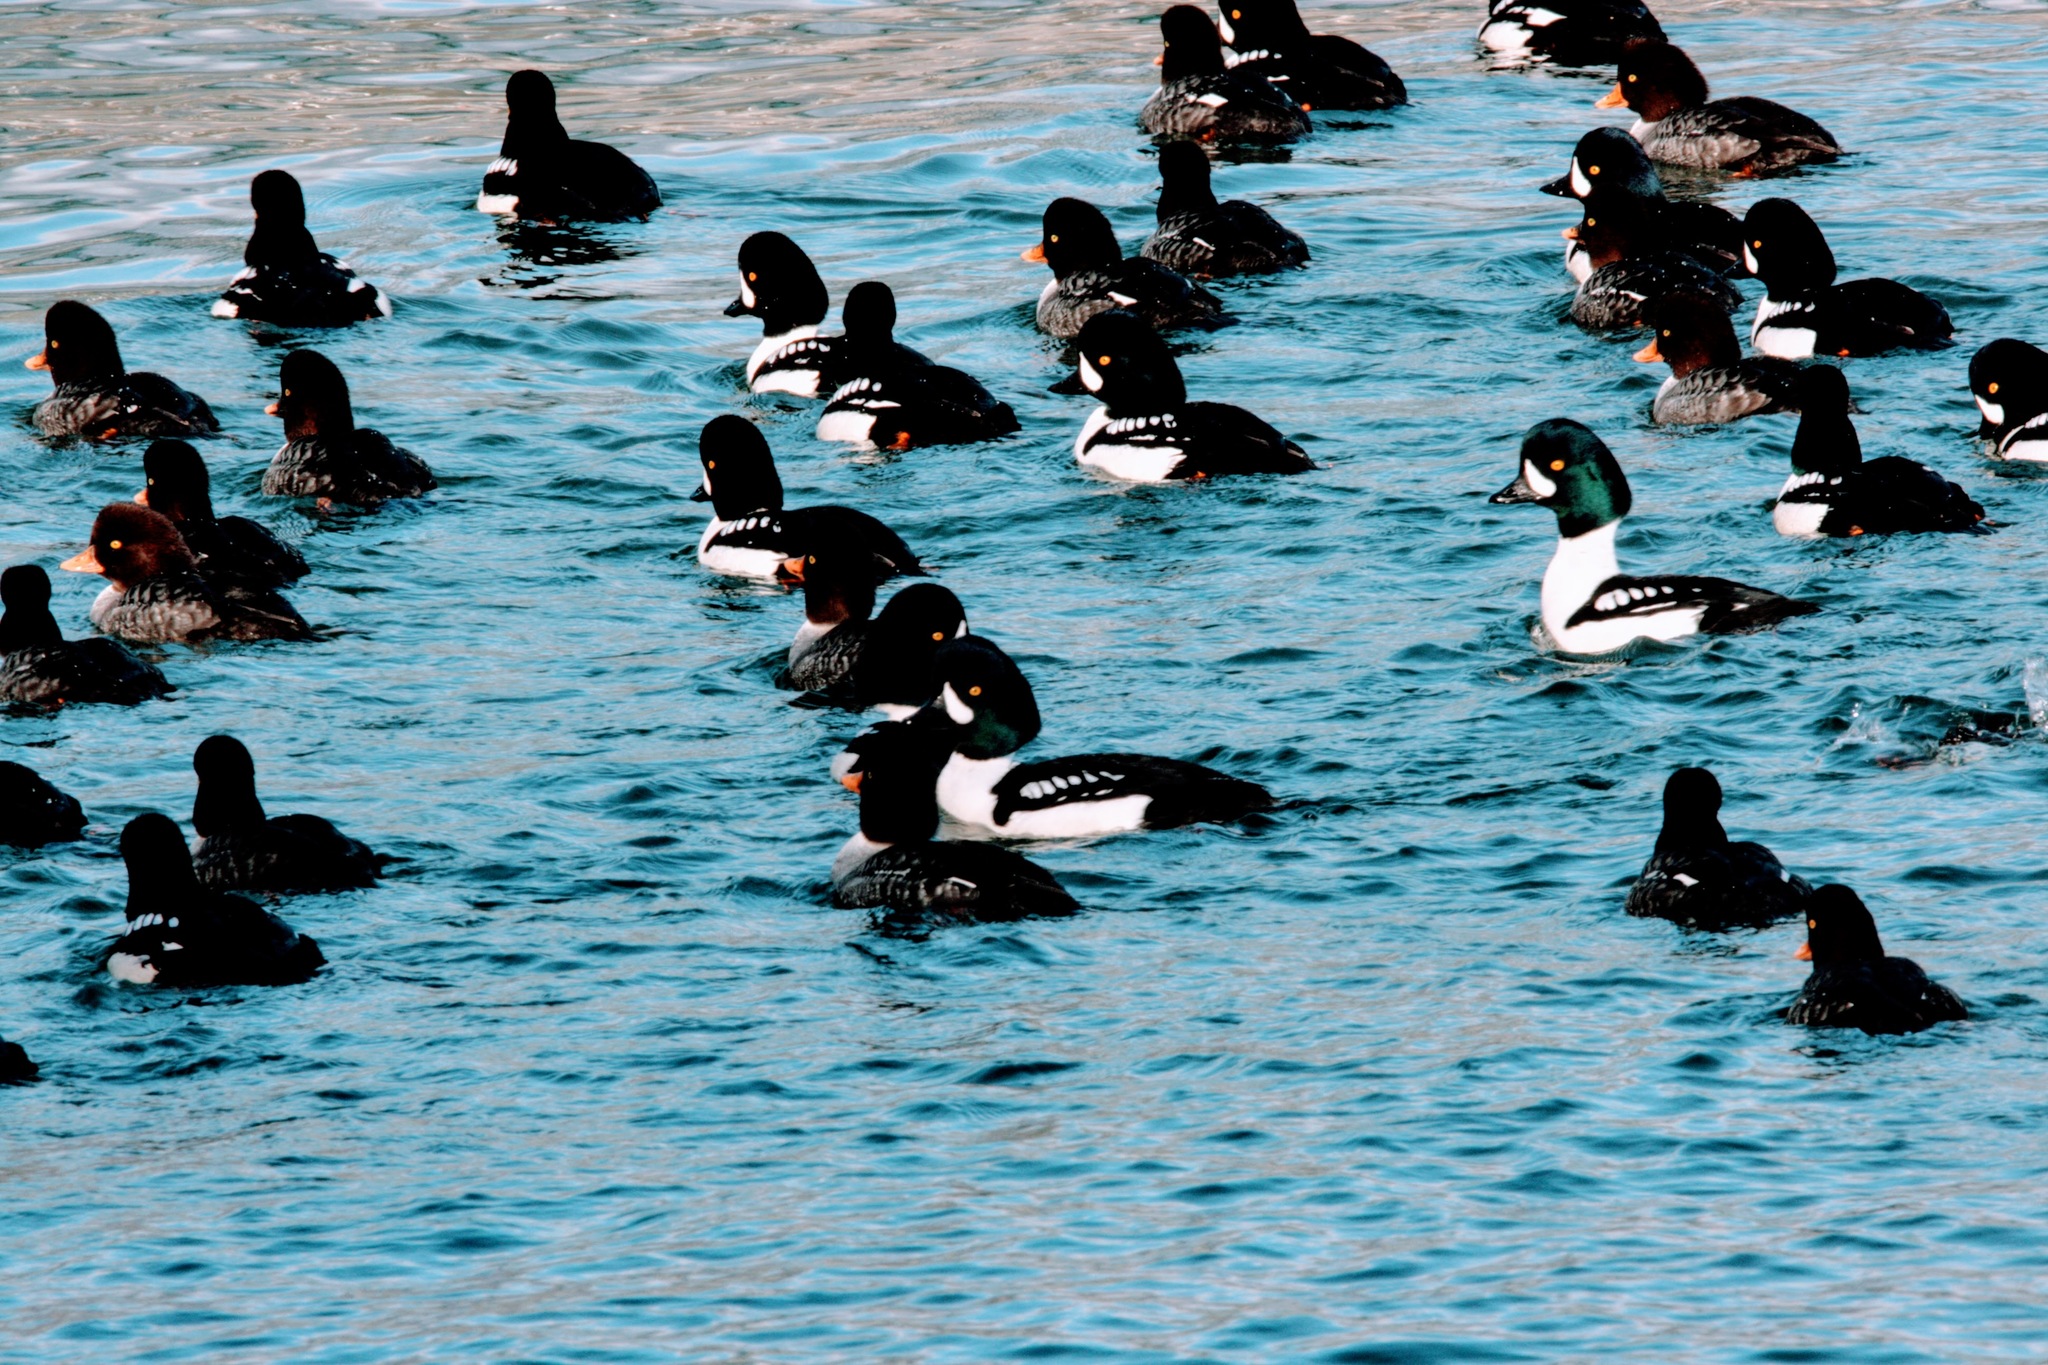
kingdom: Animalia
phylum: Chordata
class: Aves
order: Anseriformes
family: Anatidae
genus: Bucephala
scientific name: Bucephala islandica
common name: Barrow's goldeneye
